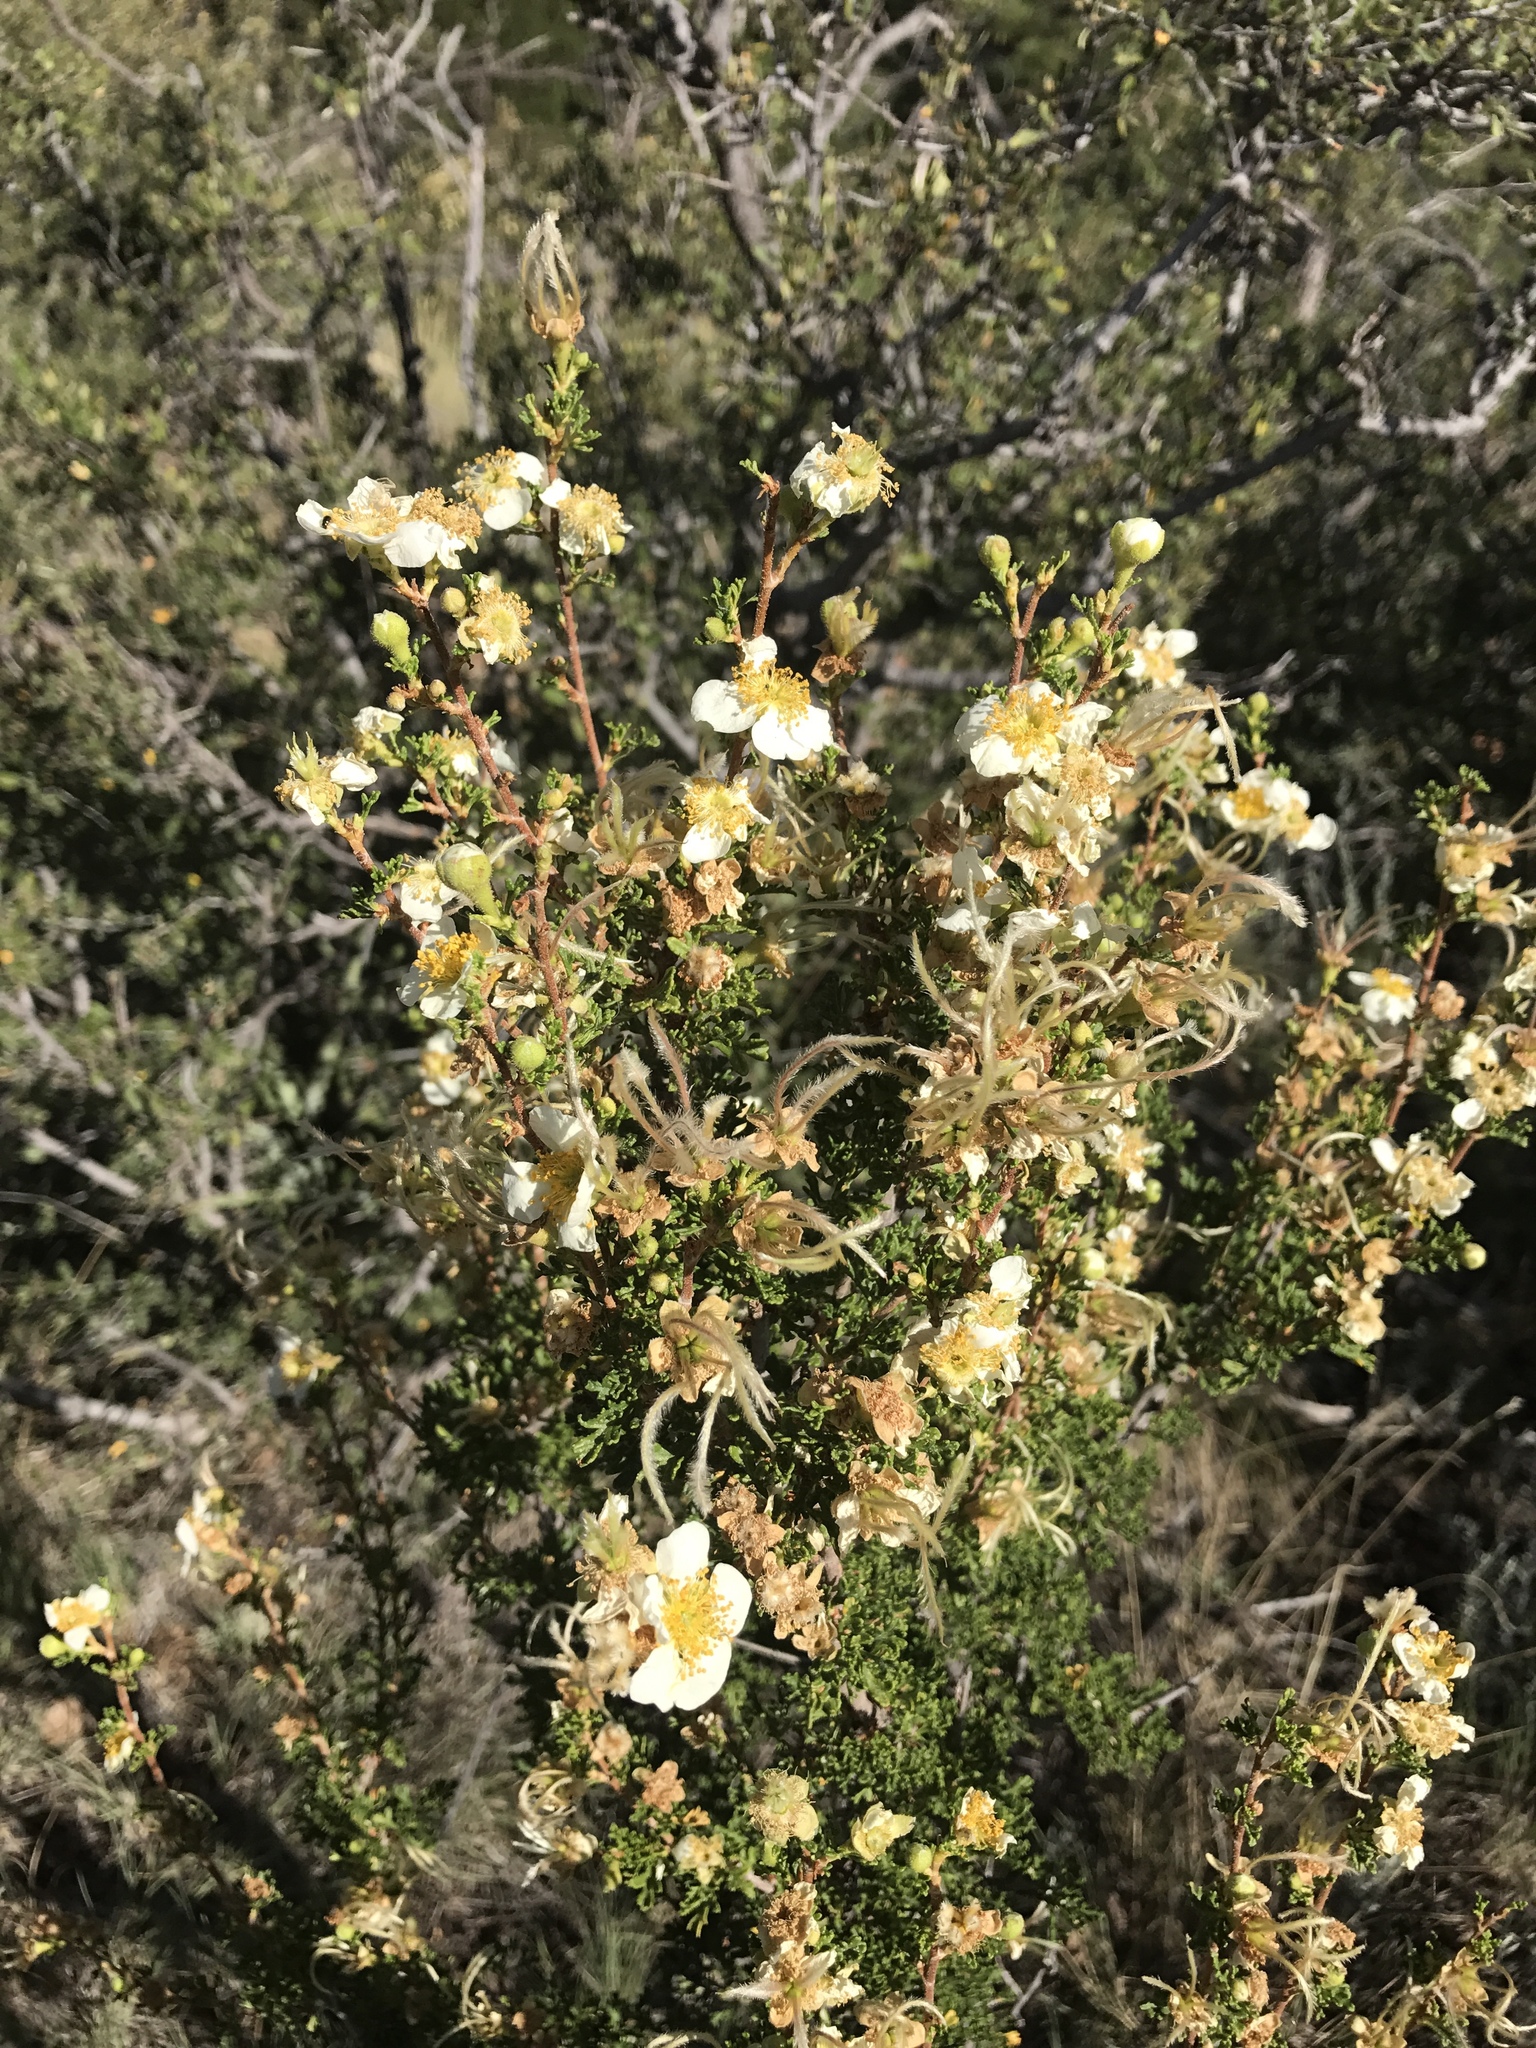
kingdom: Plantae
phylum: Tracheophyta
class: Magnoliopsida
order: Rosales
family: Rosaceae
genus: Purshia
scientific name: Purshia stansburiana
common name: Stansbury's cliffrose
